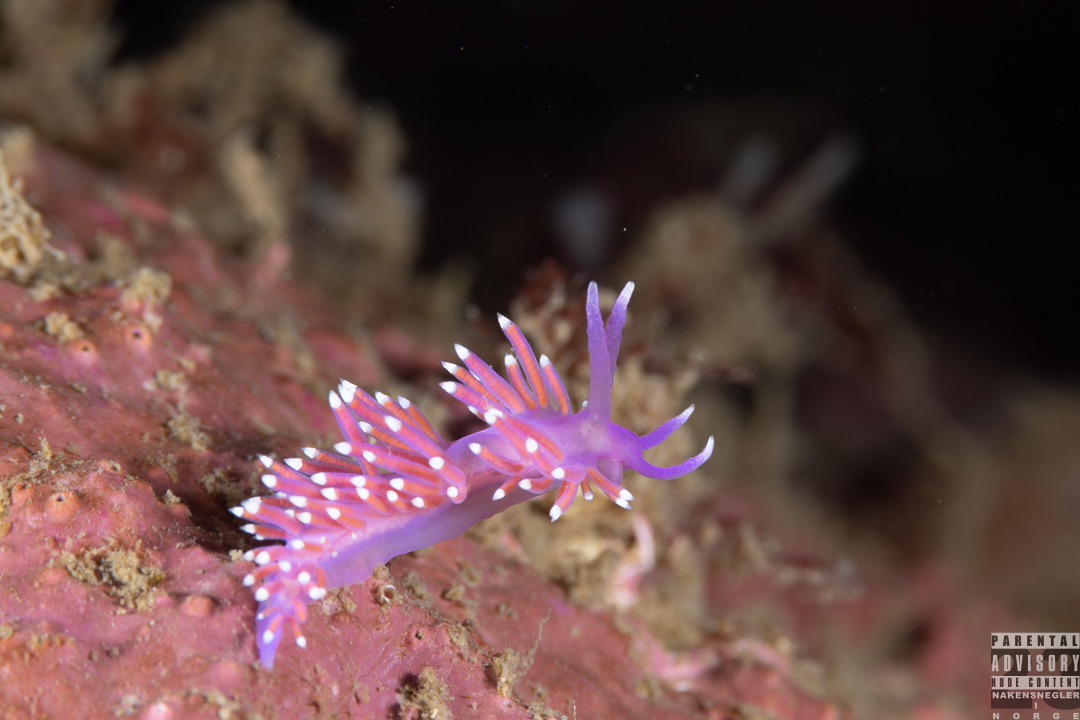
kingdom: Animalia
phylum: Mollusca
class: Gastropoda
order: Nudibranchia
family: Flabellinidae
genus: Edmundsella
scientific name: Edmundsella pedata
